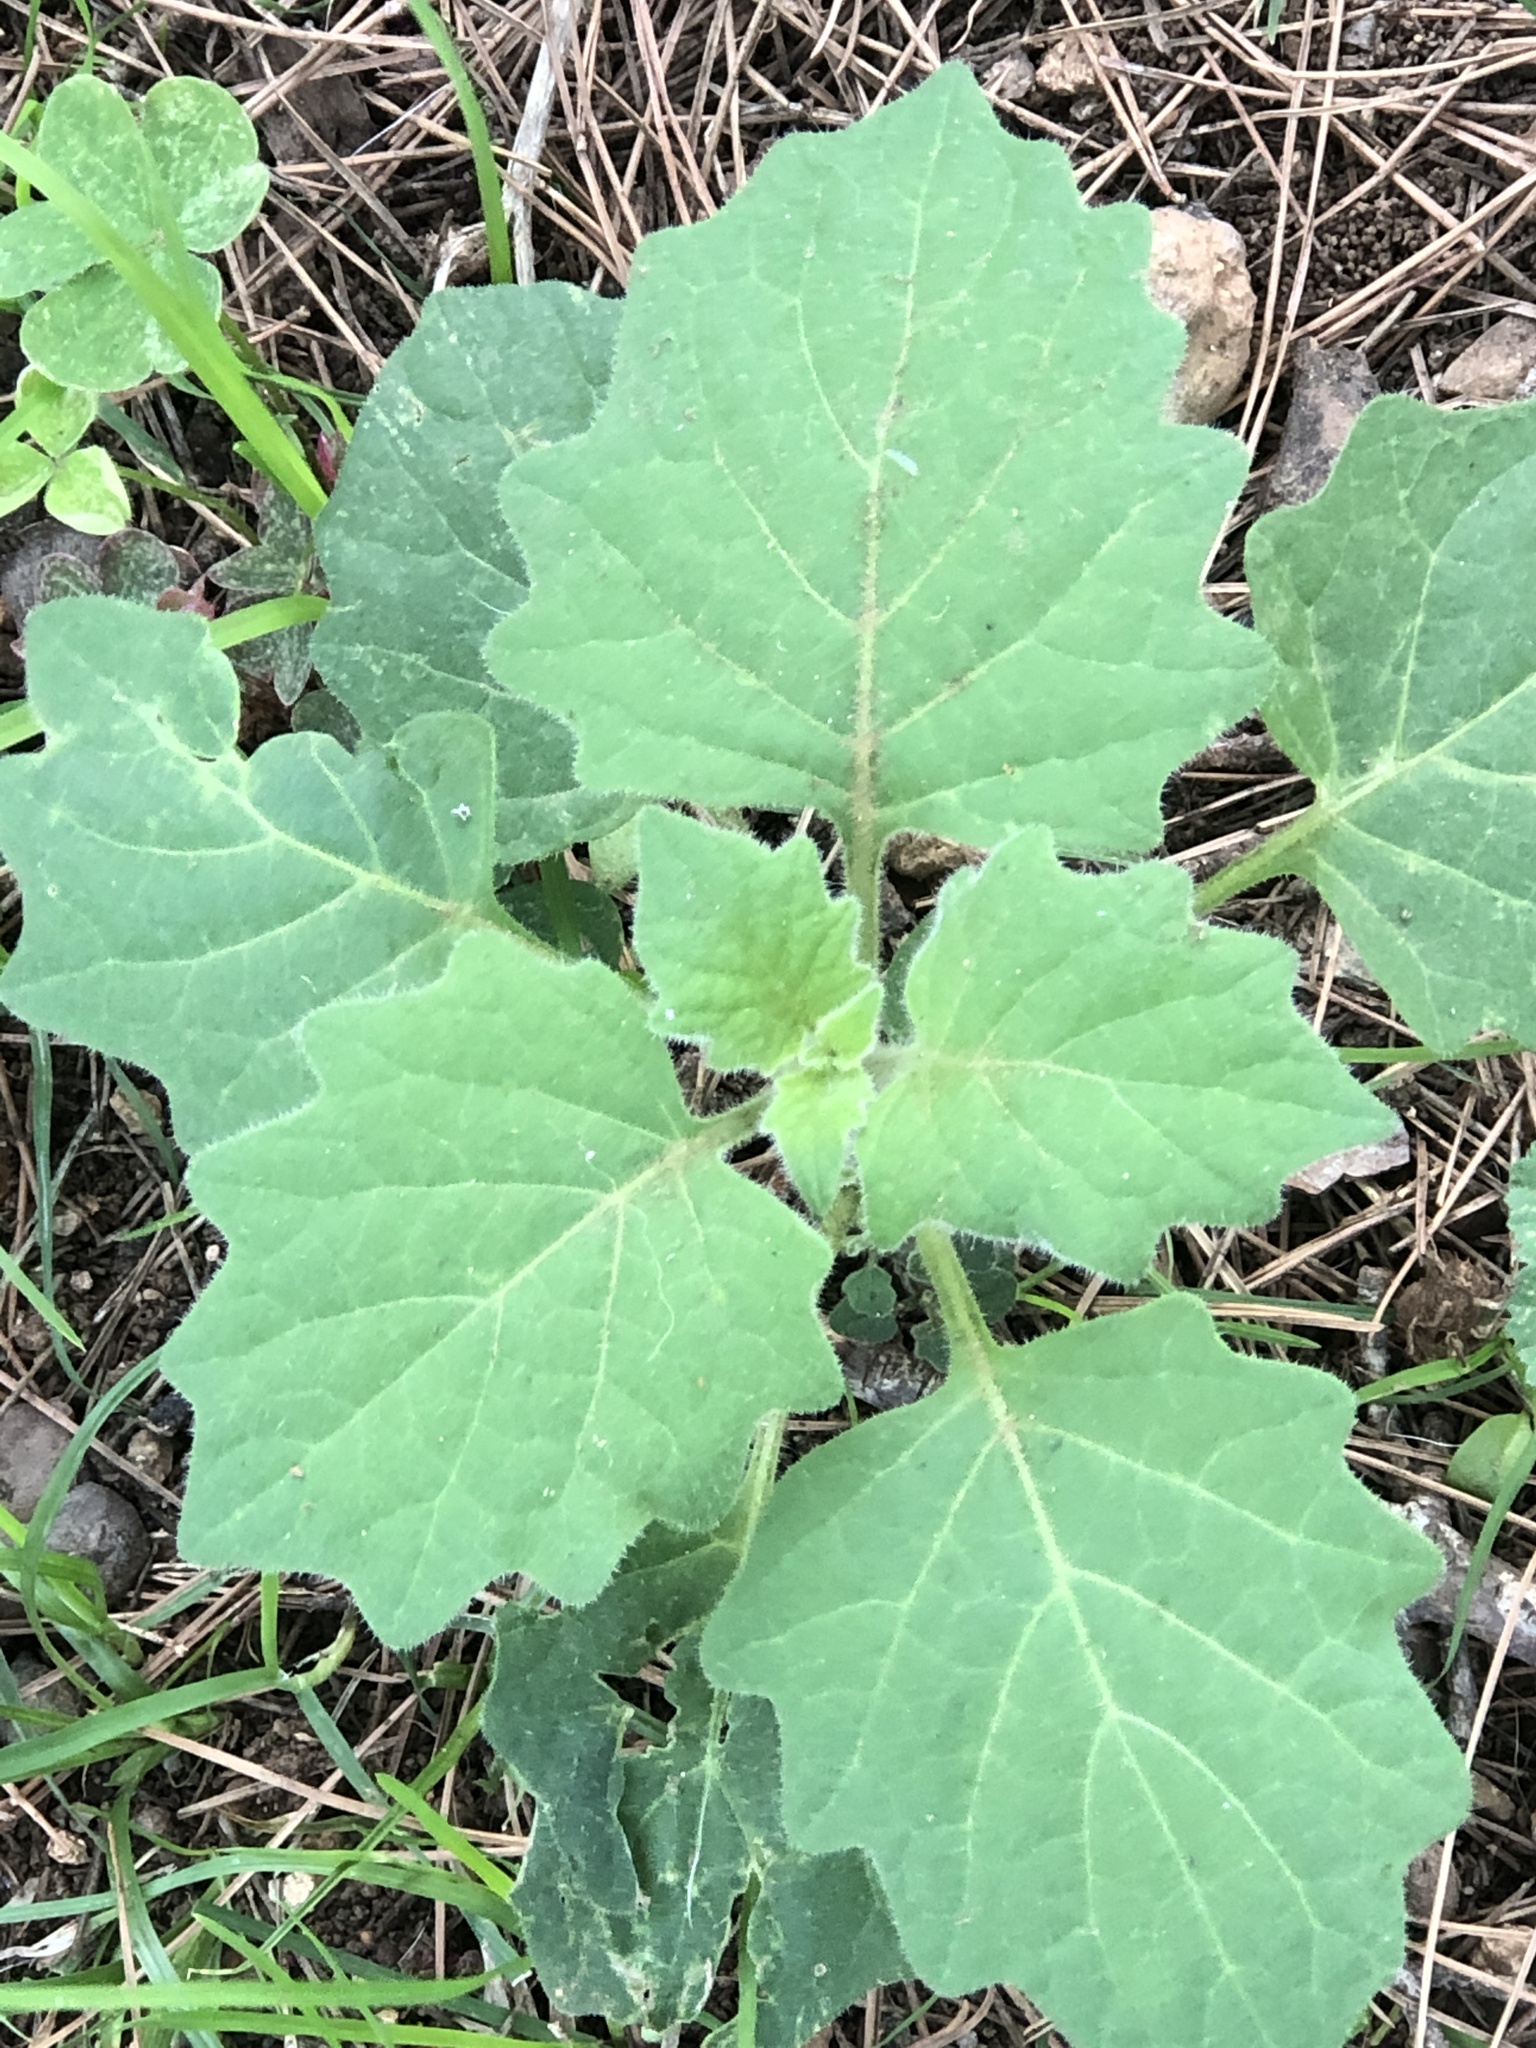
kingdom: Plantae
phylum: Tracheophyta
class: Magnoliopsida
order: Solanales
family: Solanaceae
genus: Solanum
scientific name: Solanum
